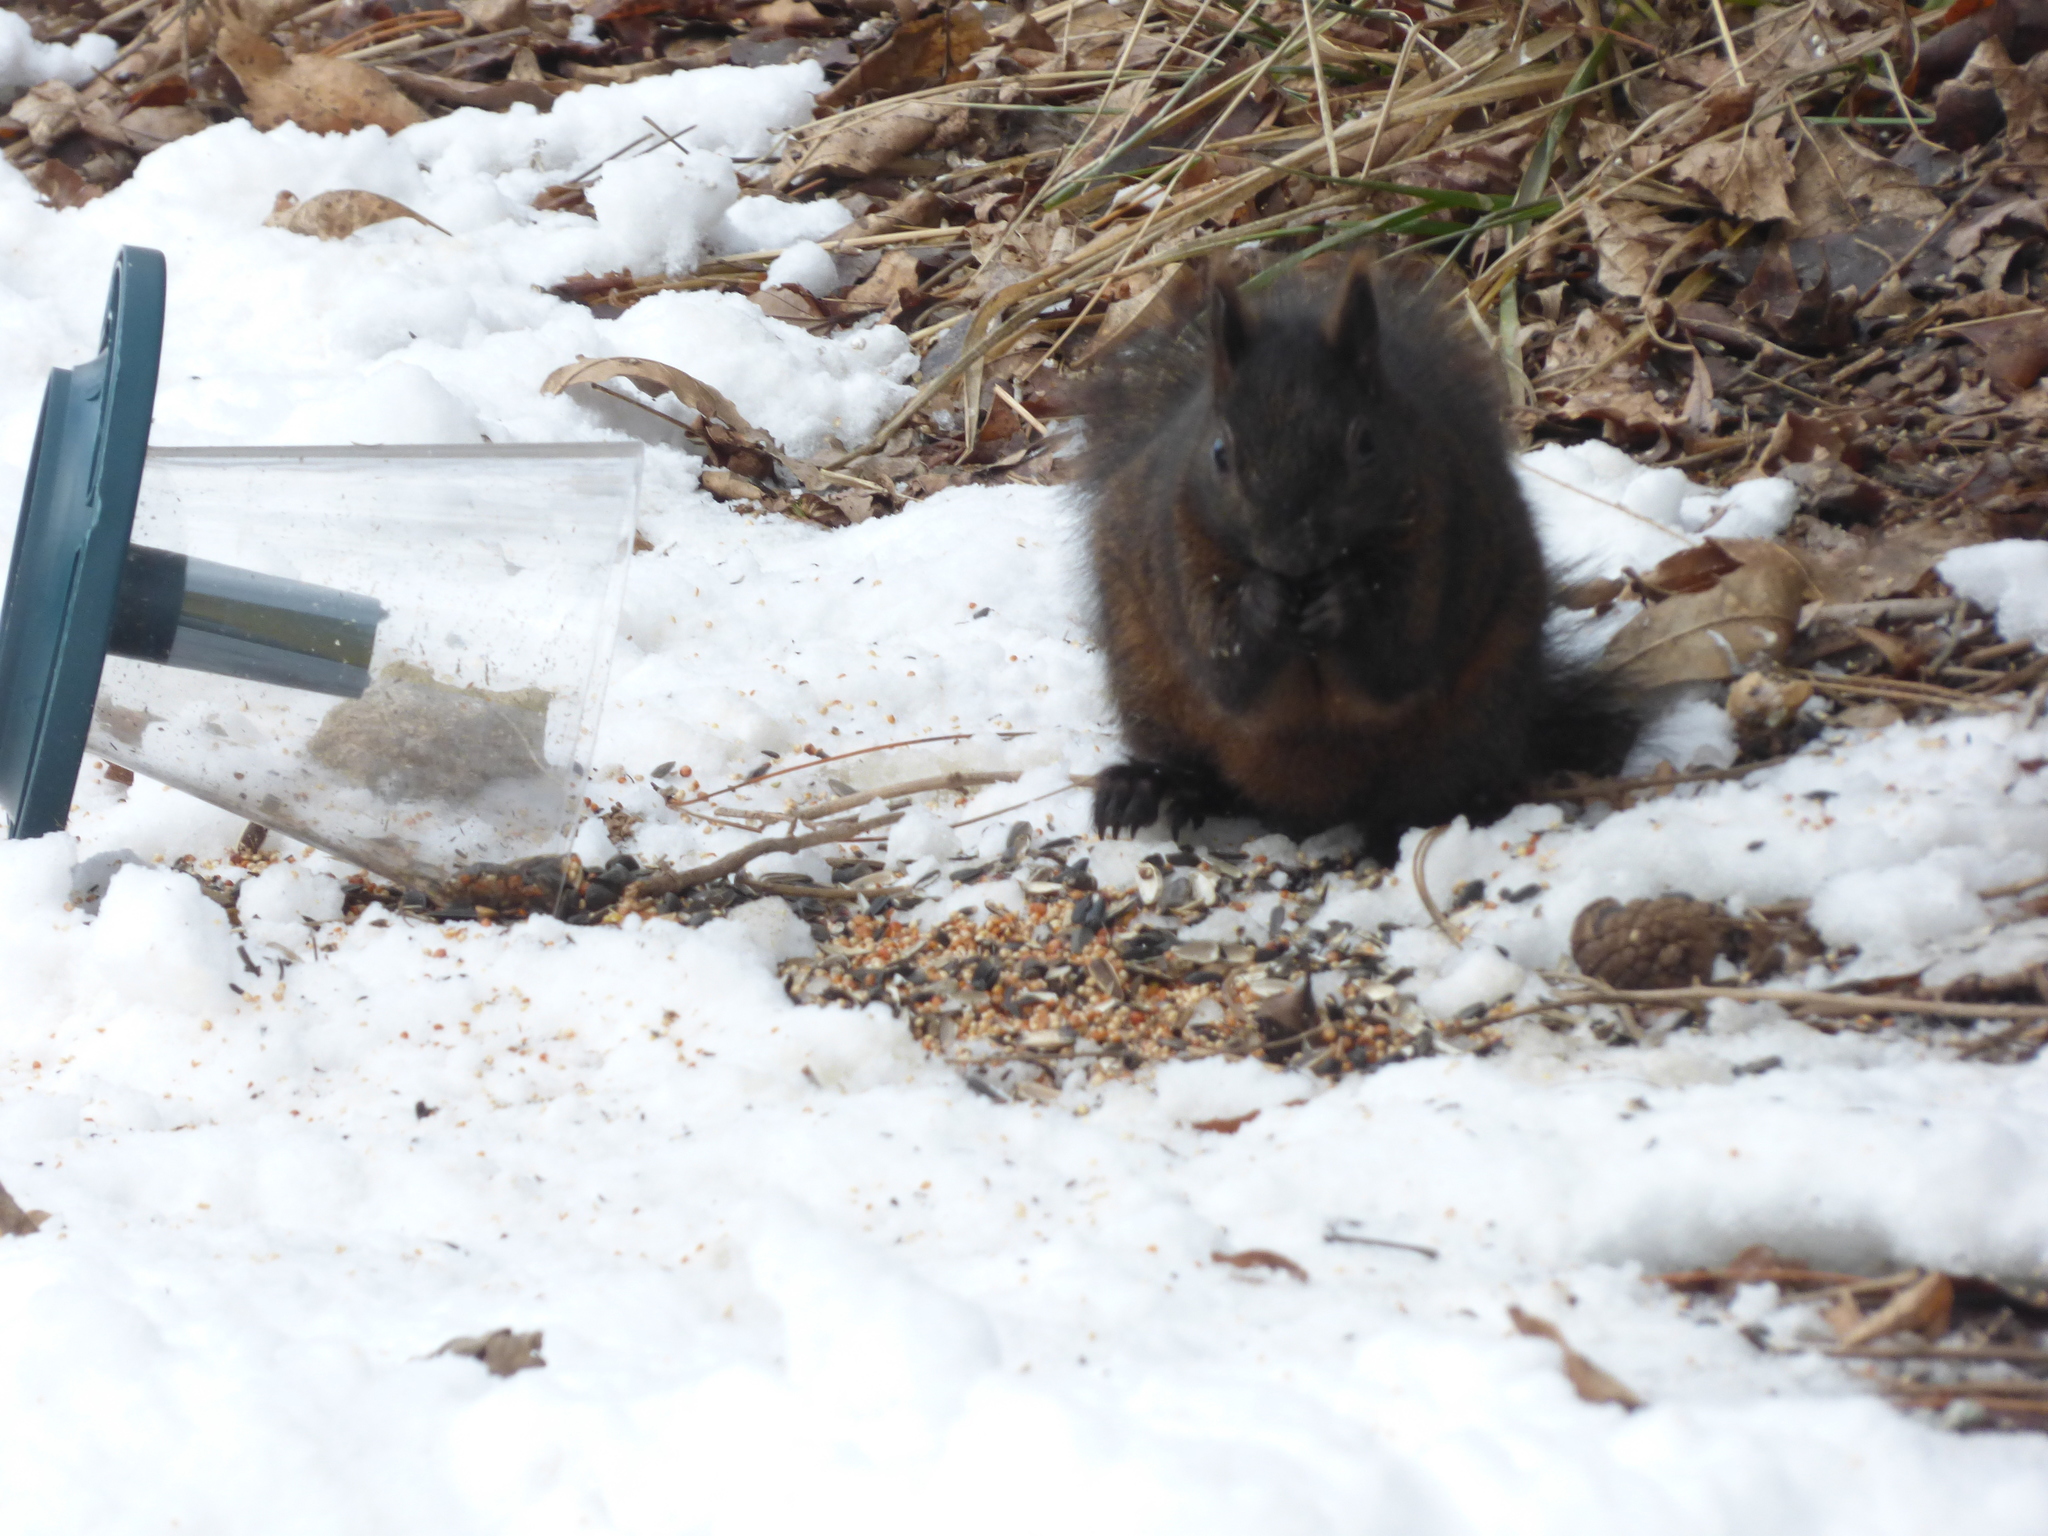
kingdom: Animalia
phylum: Chordata
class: Mammalia
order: Rodentia
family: Sciuridae
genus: Sciurus
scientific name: Sciurus carolinensis
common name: Eastern gray squirrel
